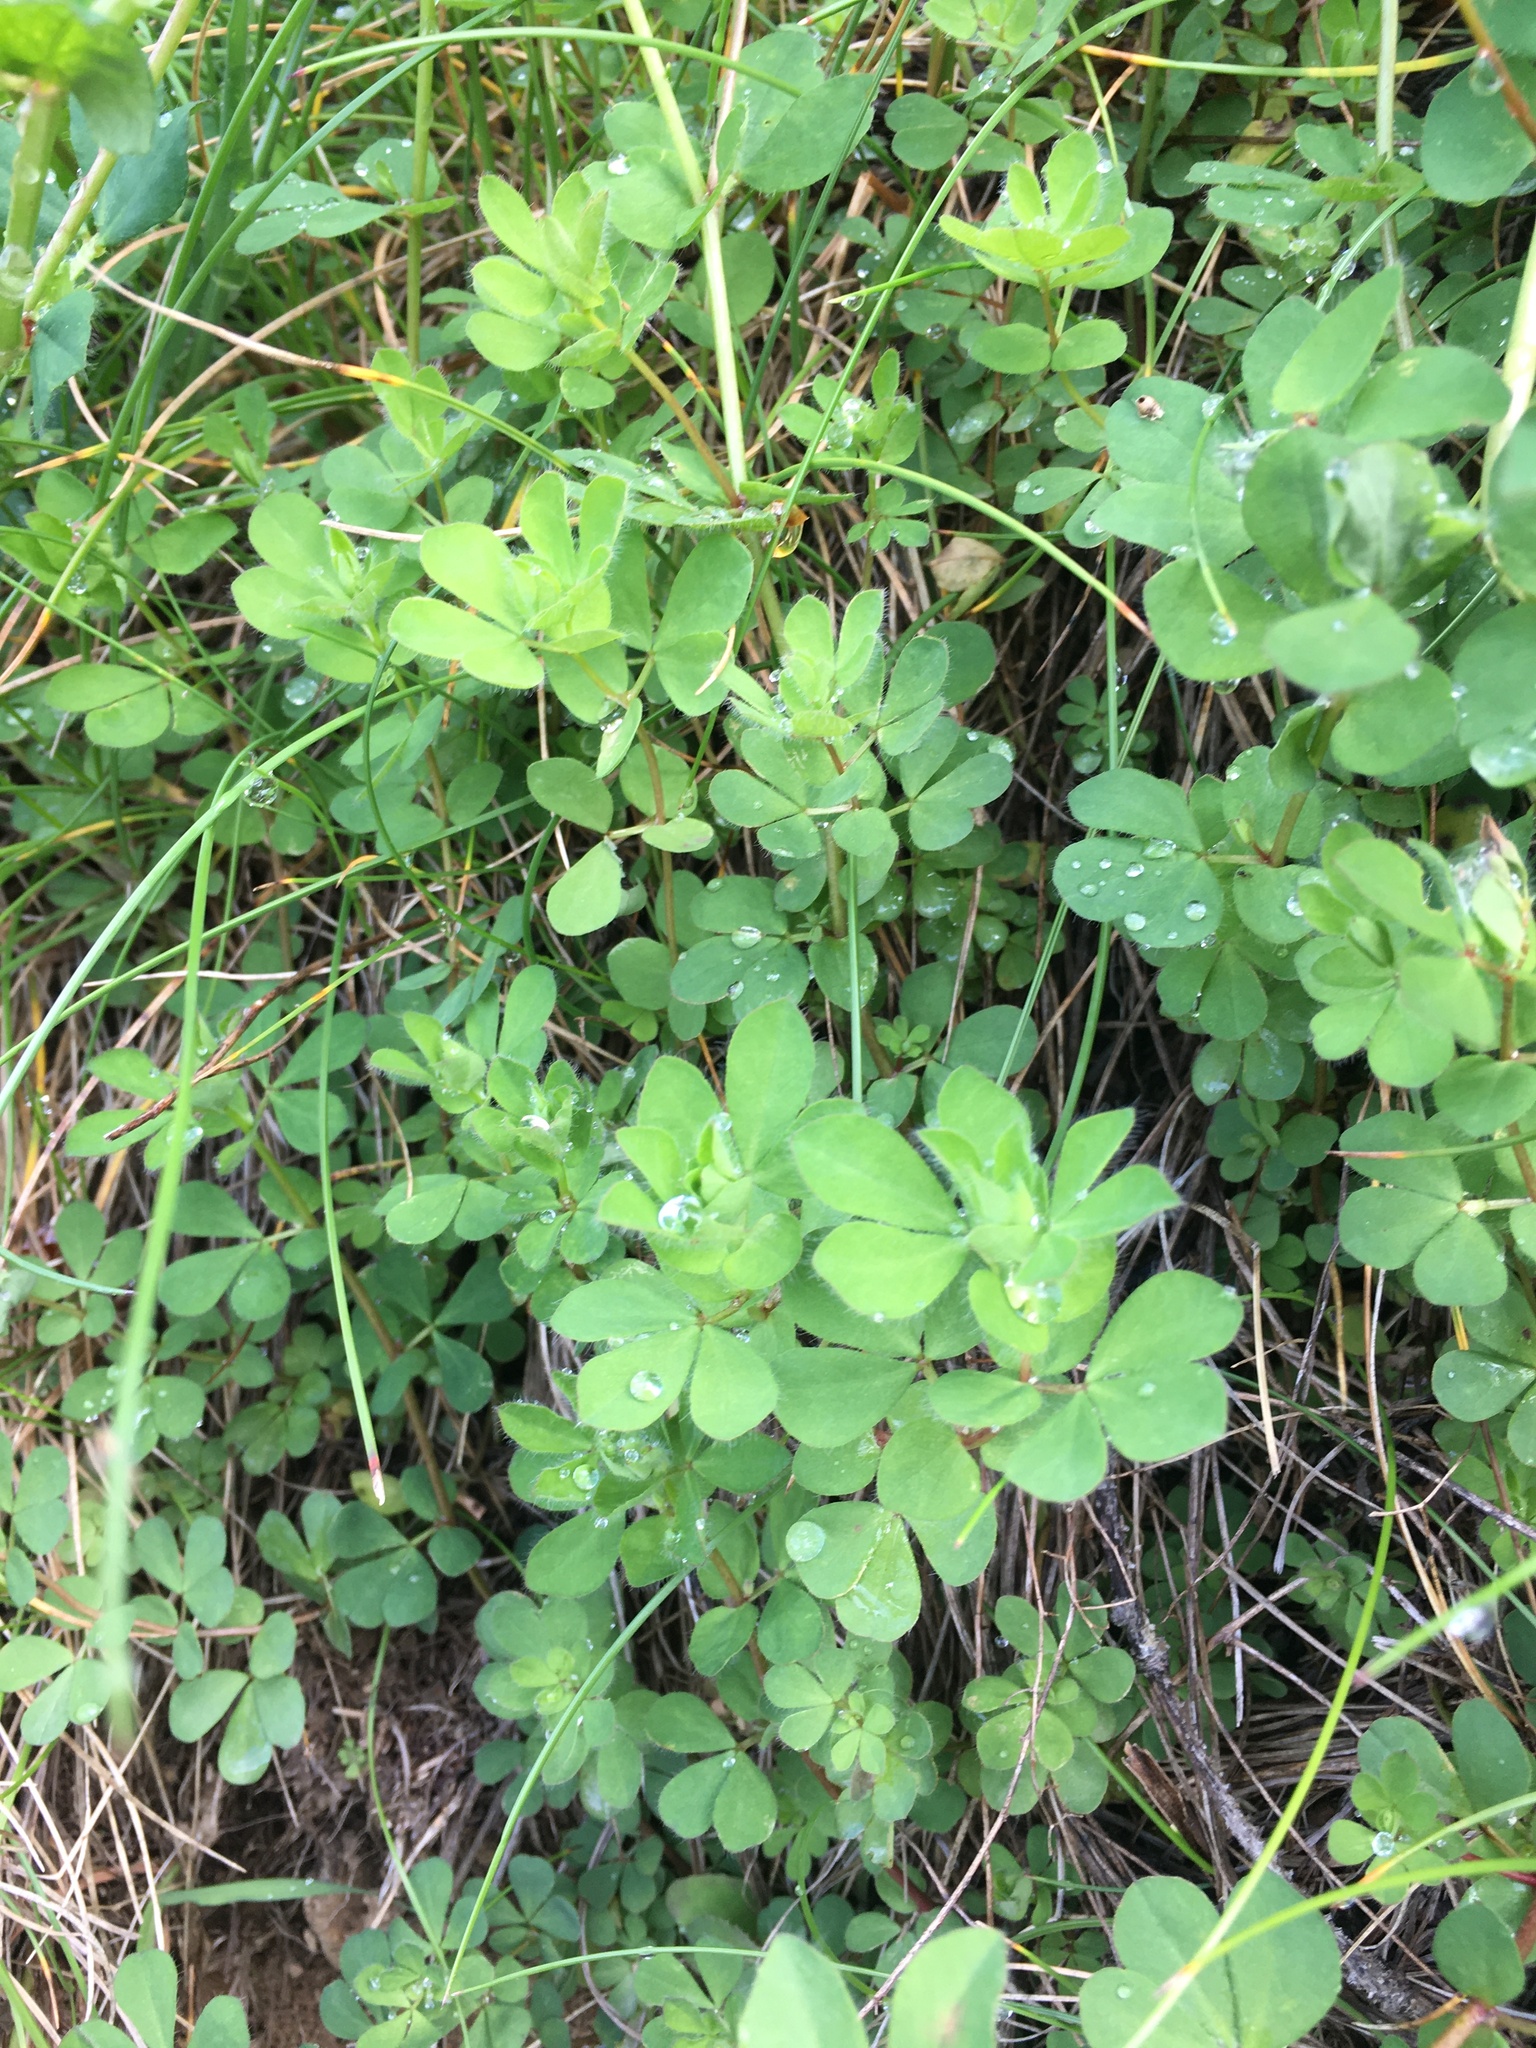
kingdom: Plantae
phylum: Tracheophyta
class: Magnoliopsida
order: Fabales
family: Fabaceae
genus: Lotus
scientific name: Lotus pedunculatus
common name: Greater birdsfoot-trefoil
